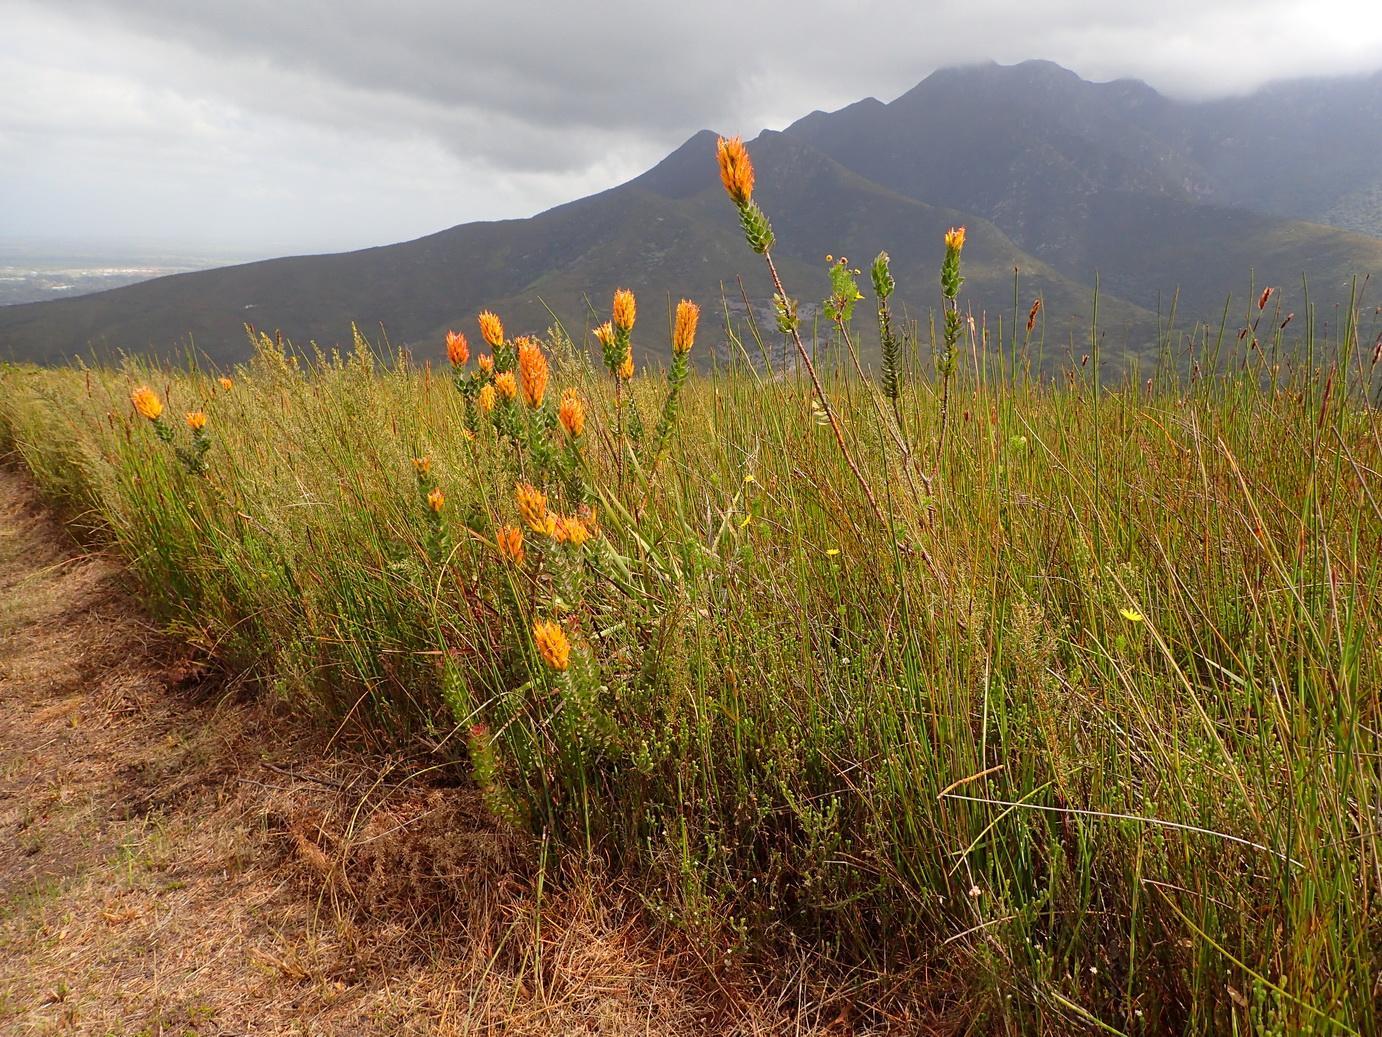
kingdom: Plantae
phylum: Tracheophyta
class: Magnoliopsida
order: Proteales
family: Proteaceae
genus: Mimetes
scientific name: Mimetes pauciflora
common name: Three-flowered pagoda
